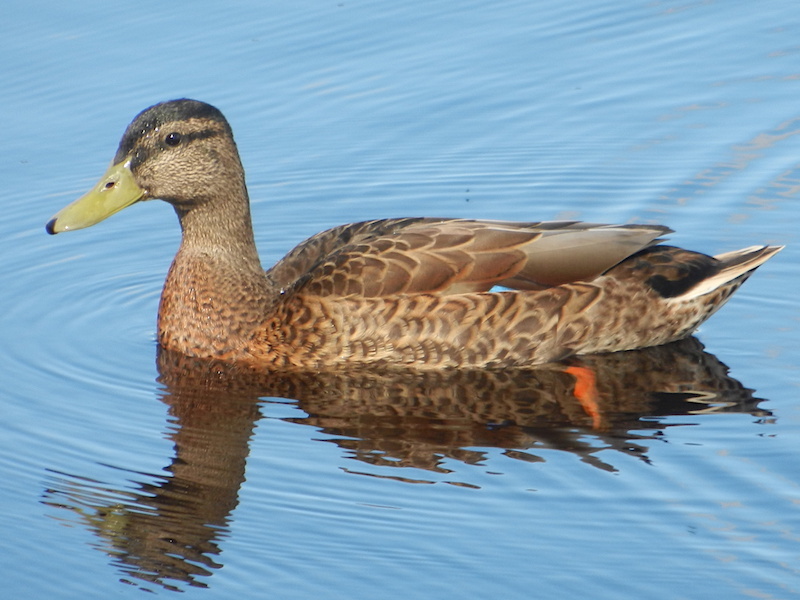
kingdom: Animalia
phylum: Chordata
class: Aves
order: Anseriformes
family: Anatidae
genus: Anas
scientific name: Anas platyrhynchos
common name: Mallard
